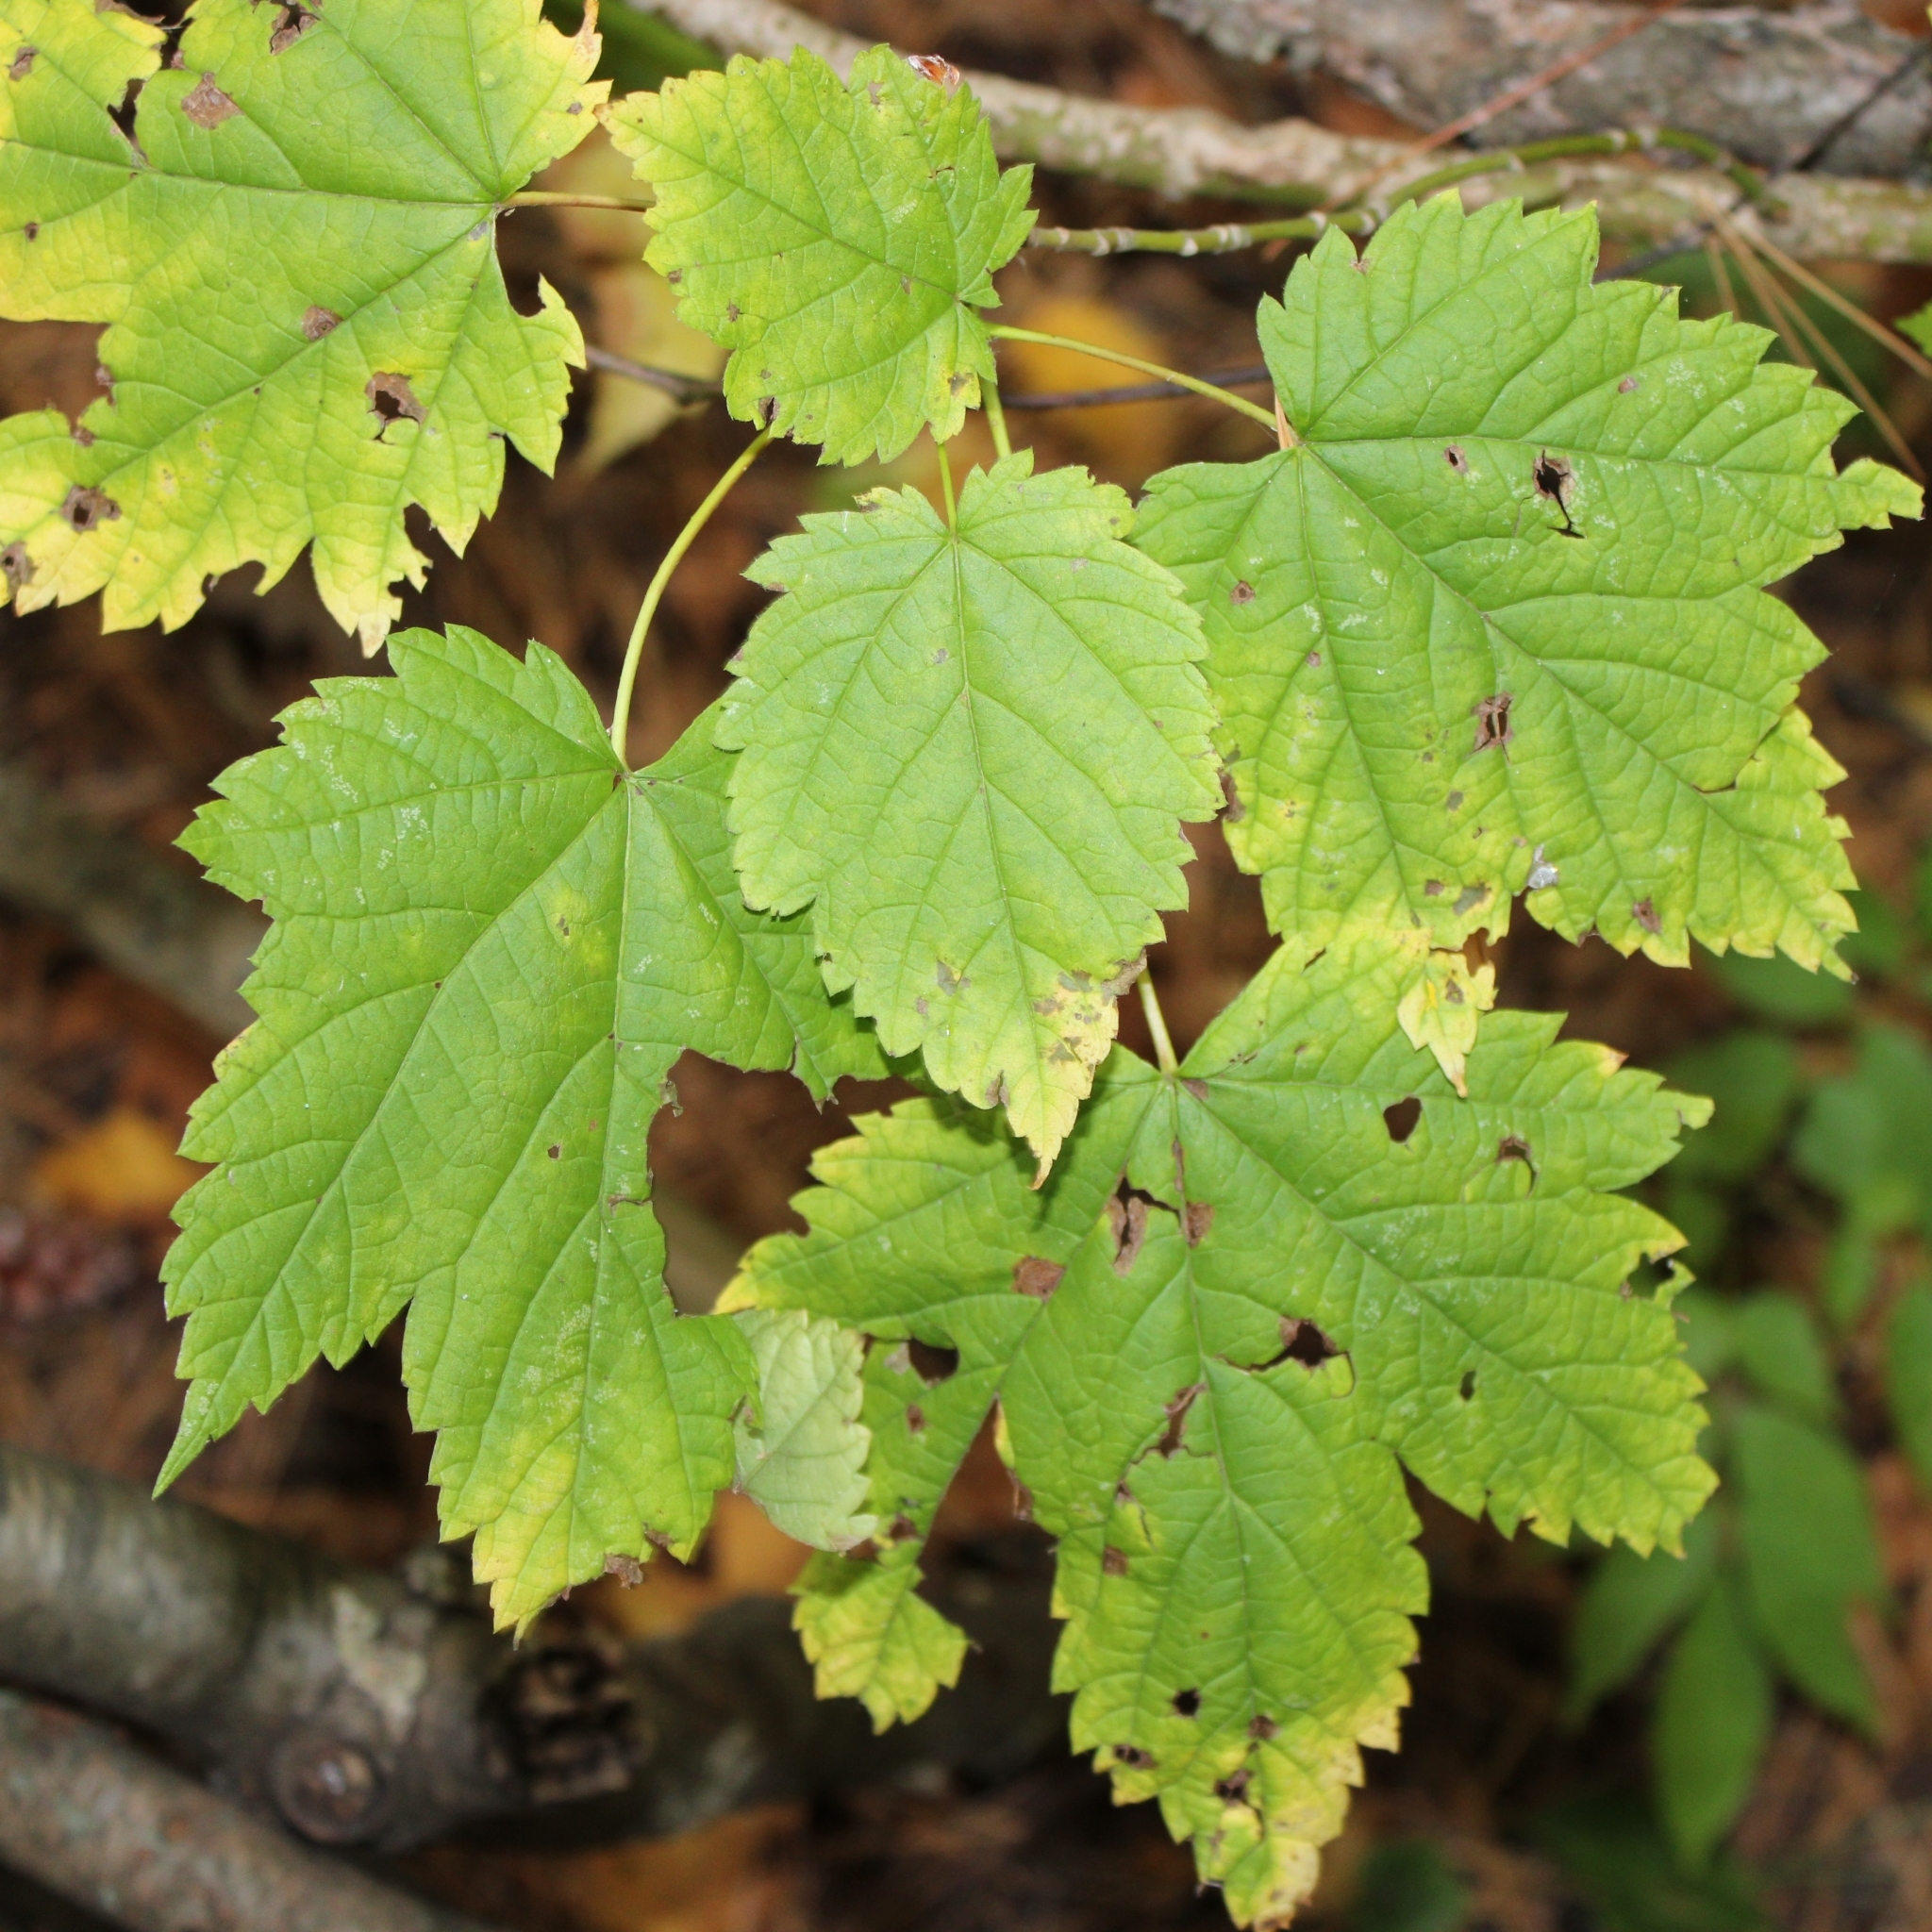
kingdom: Plantae
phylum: Tracheophyta
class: Magnoliopsida
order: Sapindales
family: Sapindaceae
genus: Acer
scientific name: Acer spicatum
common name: Mountain maple
